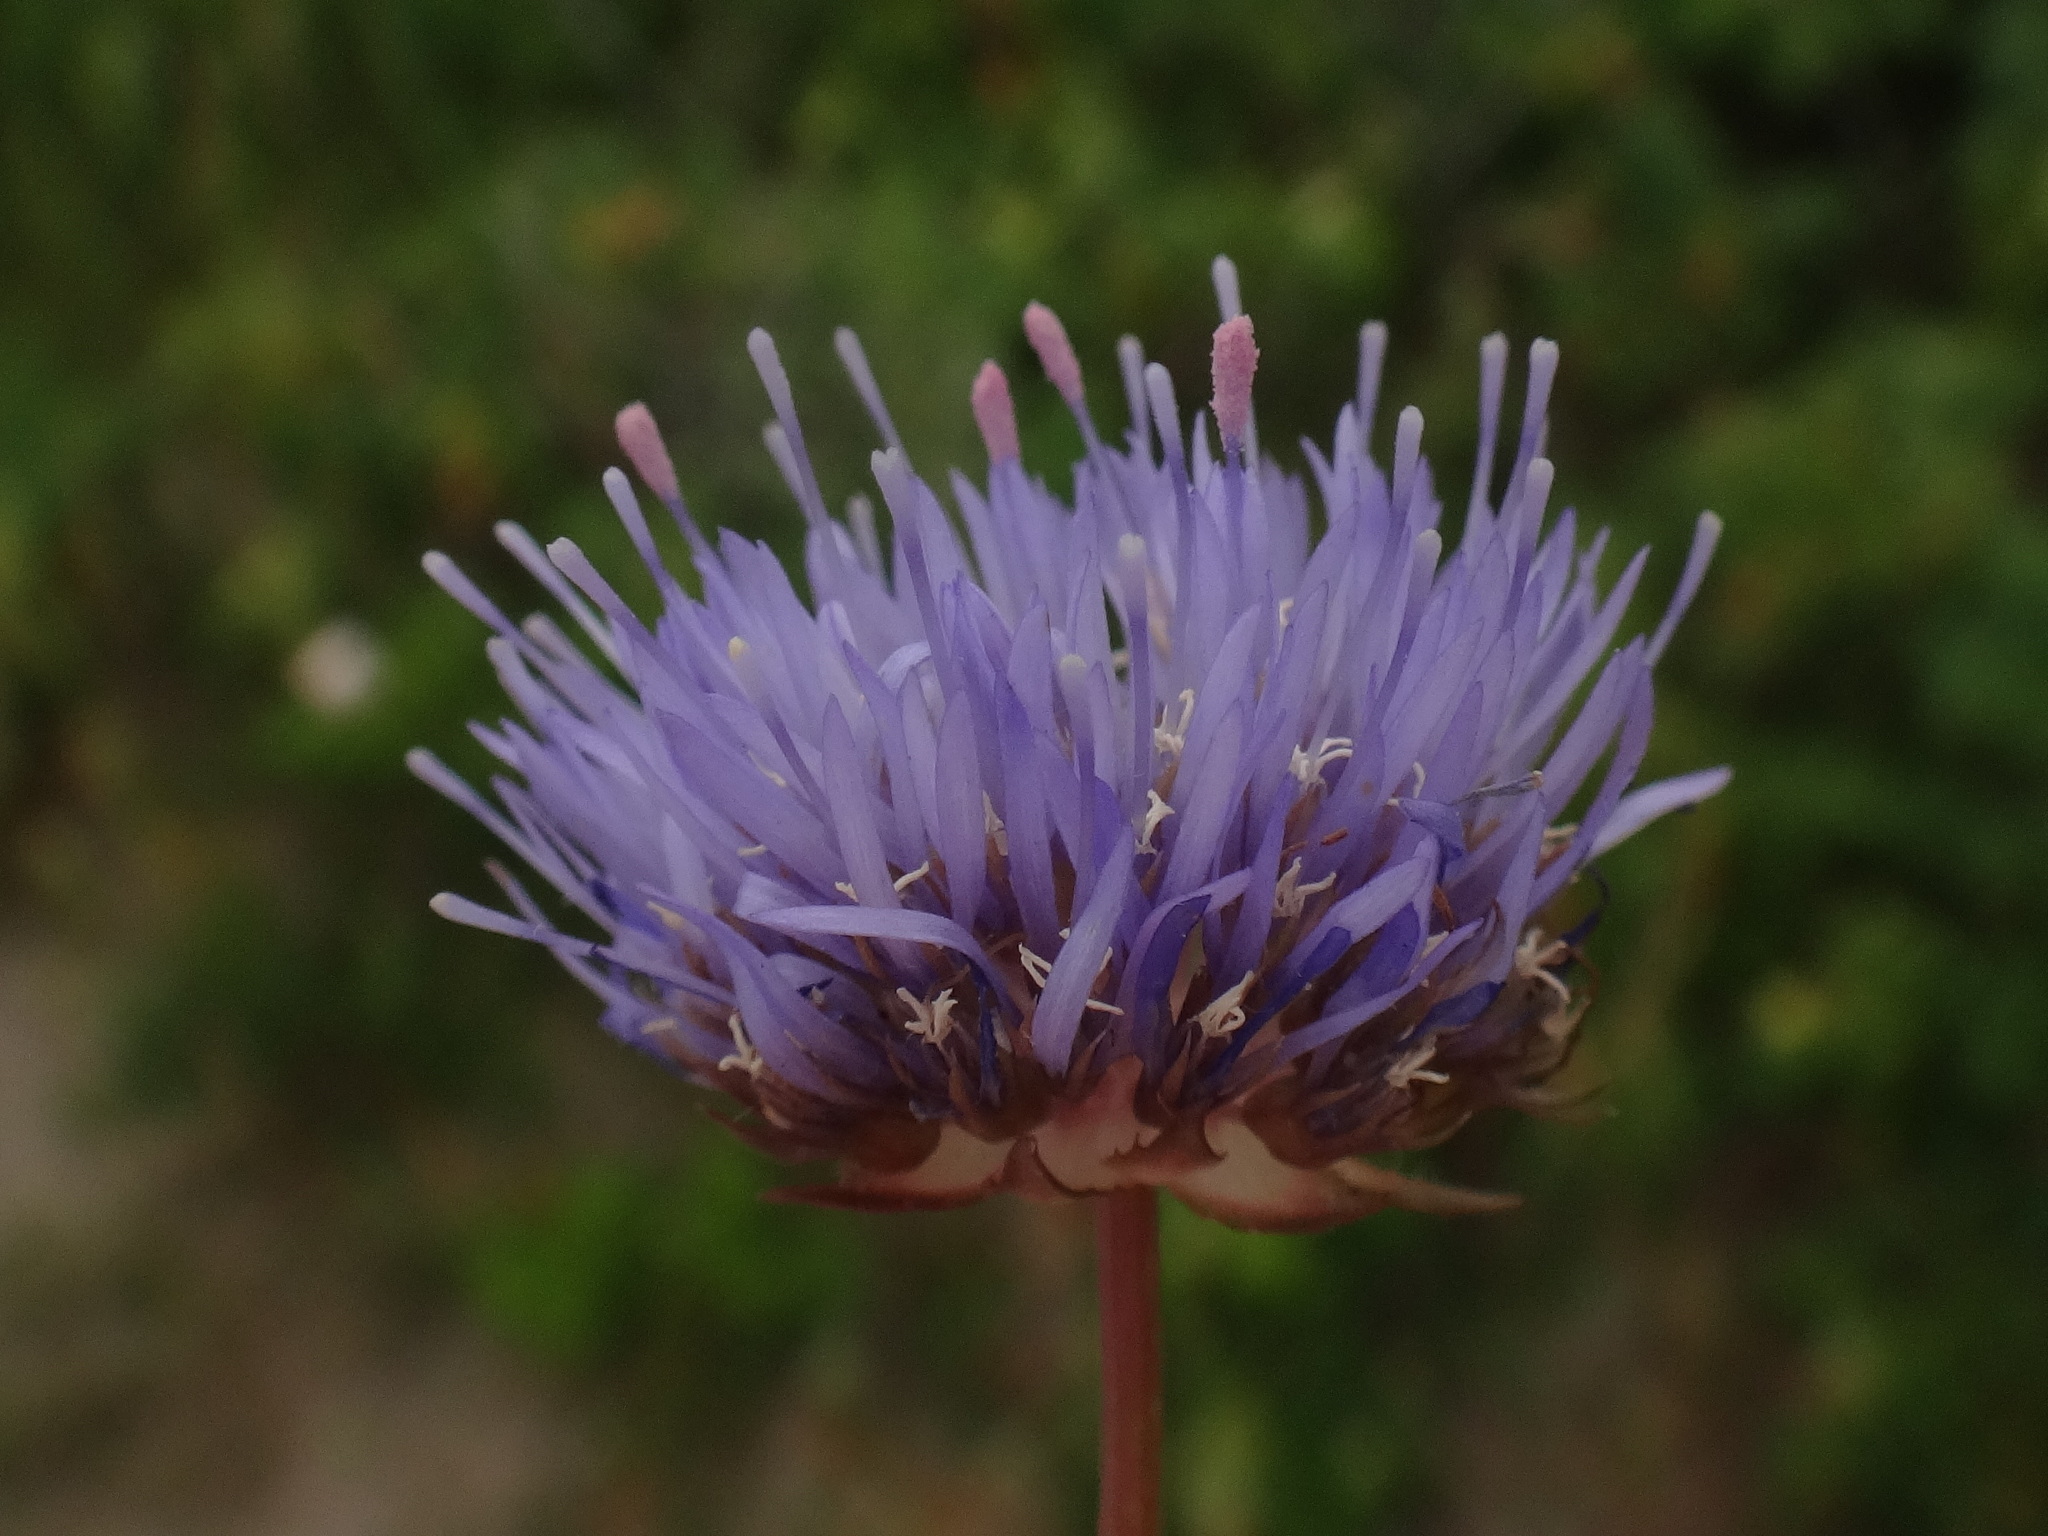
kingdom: Plantae
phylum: Tracheophyta
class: Magnoliopsida
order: Asterales
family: Campanulaceae
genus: Jasione
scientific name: Jasione montana
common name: Sheep's-bit
